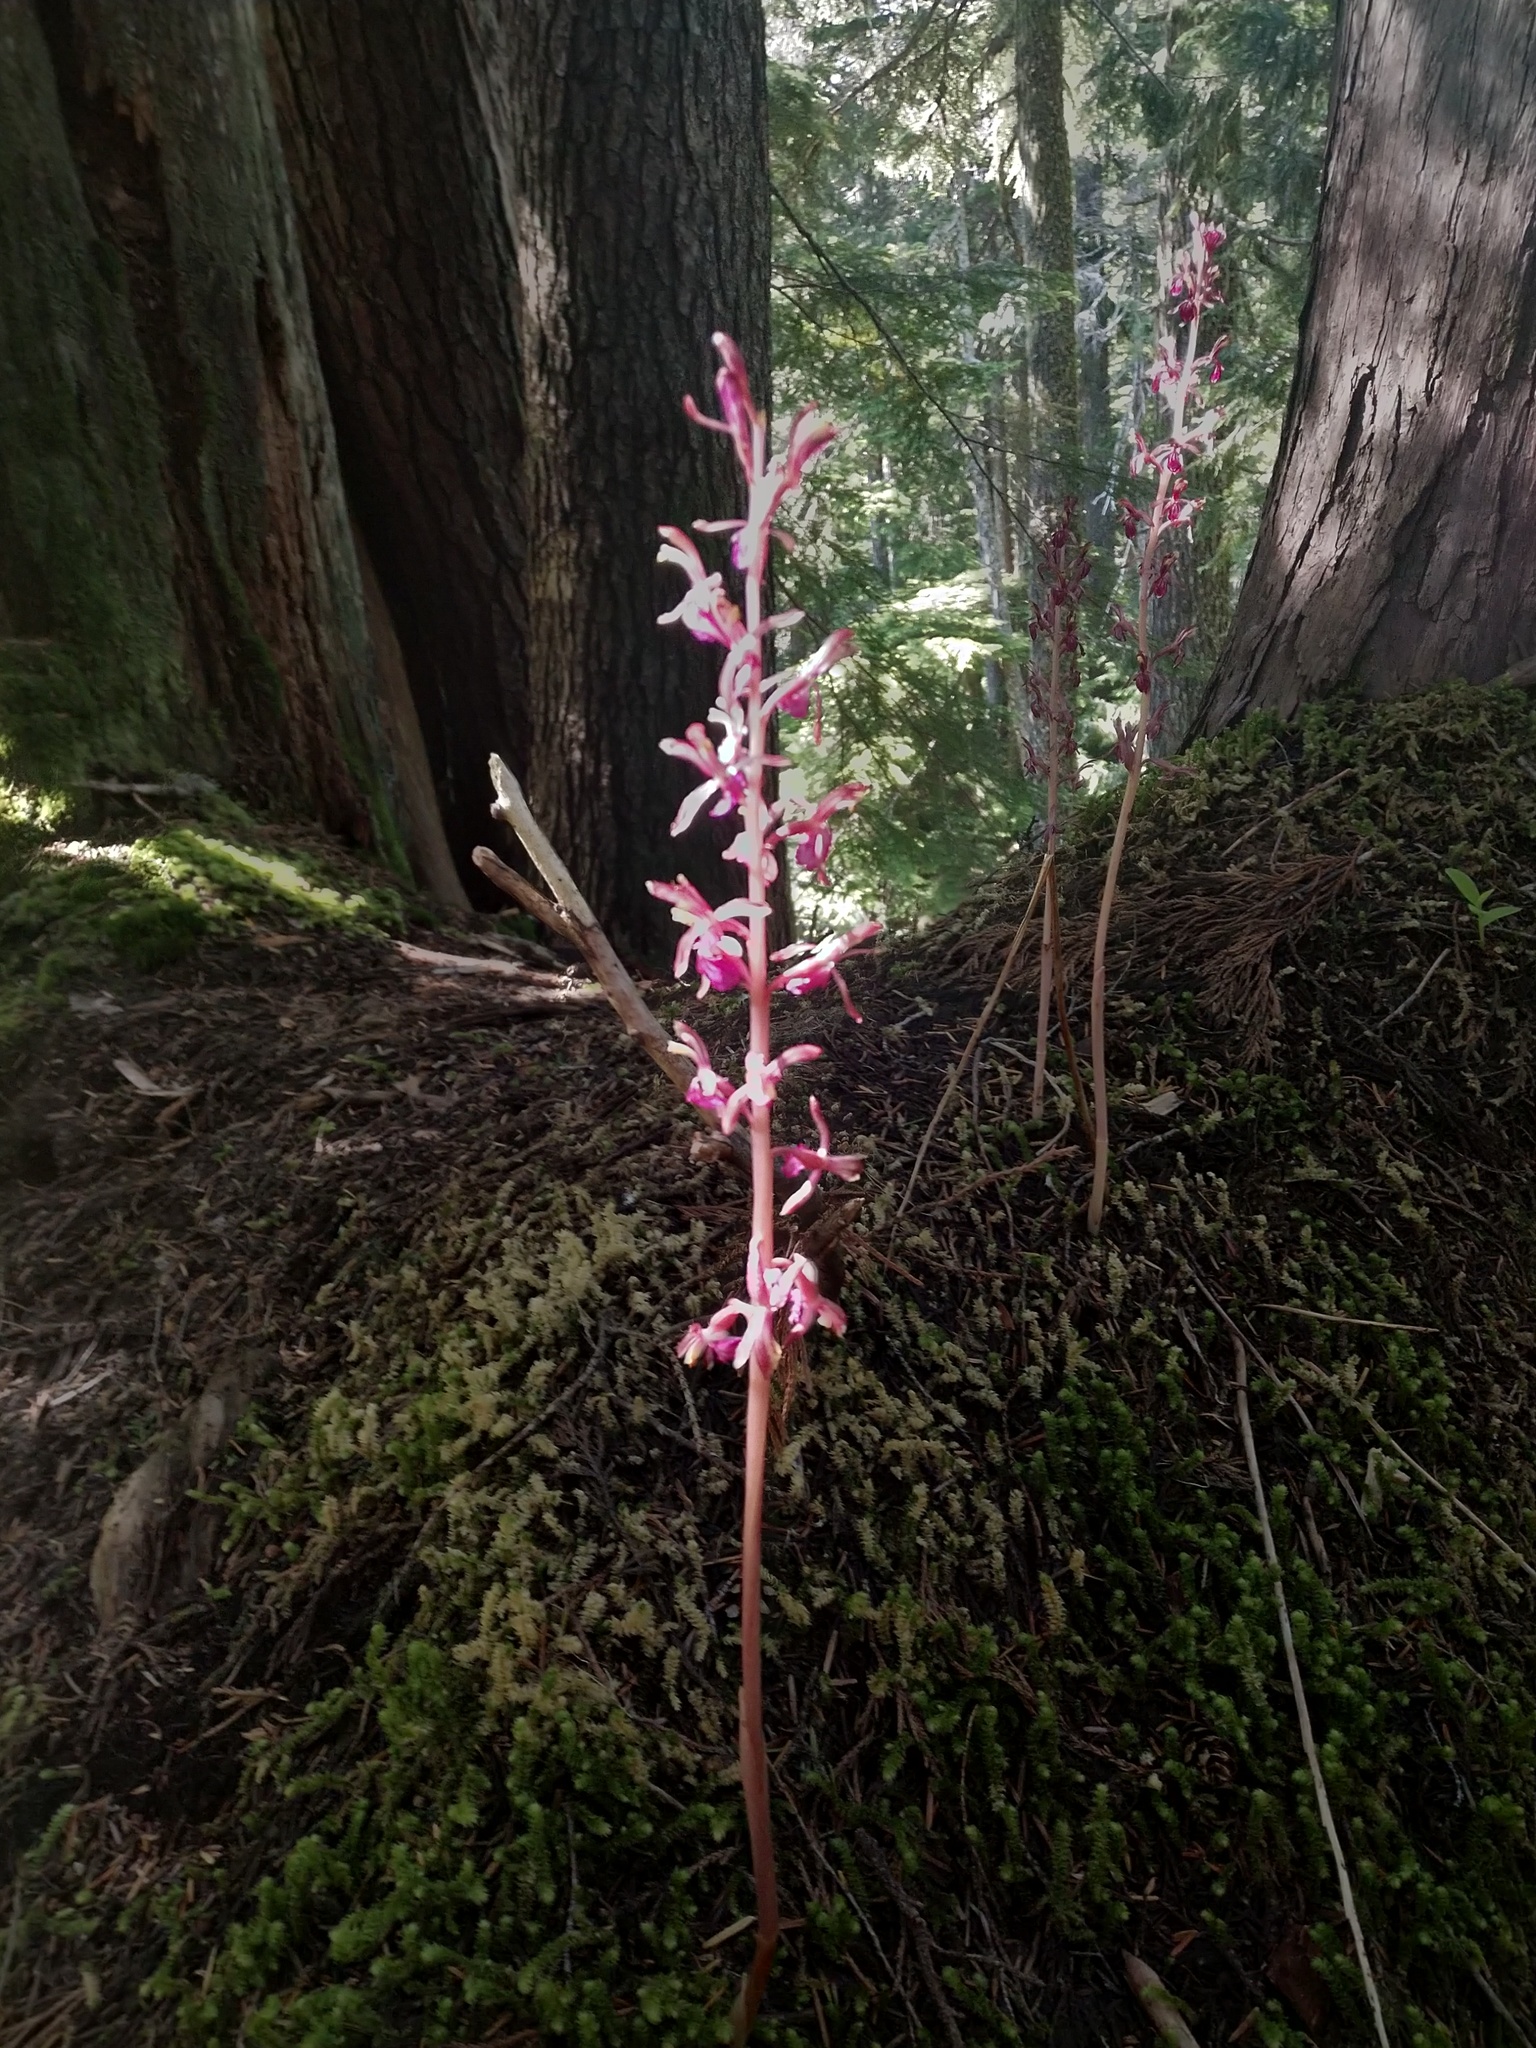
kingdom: Plantae
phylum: Tracheophyta
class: Liliopsida
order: Asparagales
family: Orchidaceae
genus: Corallorhiza
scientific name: Corallorhiza mertensiana
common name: Pacific coralroot
